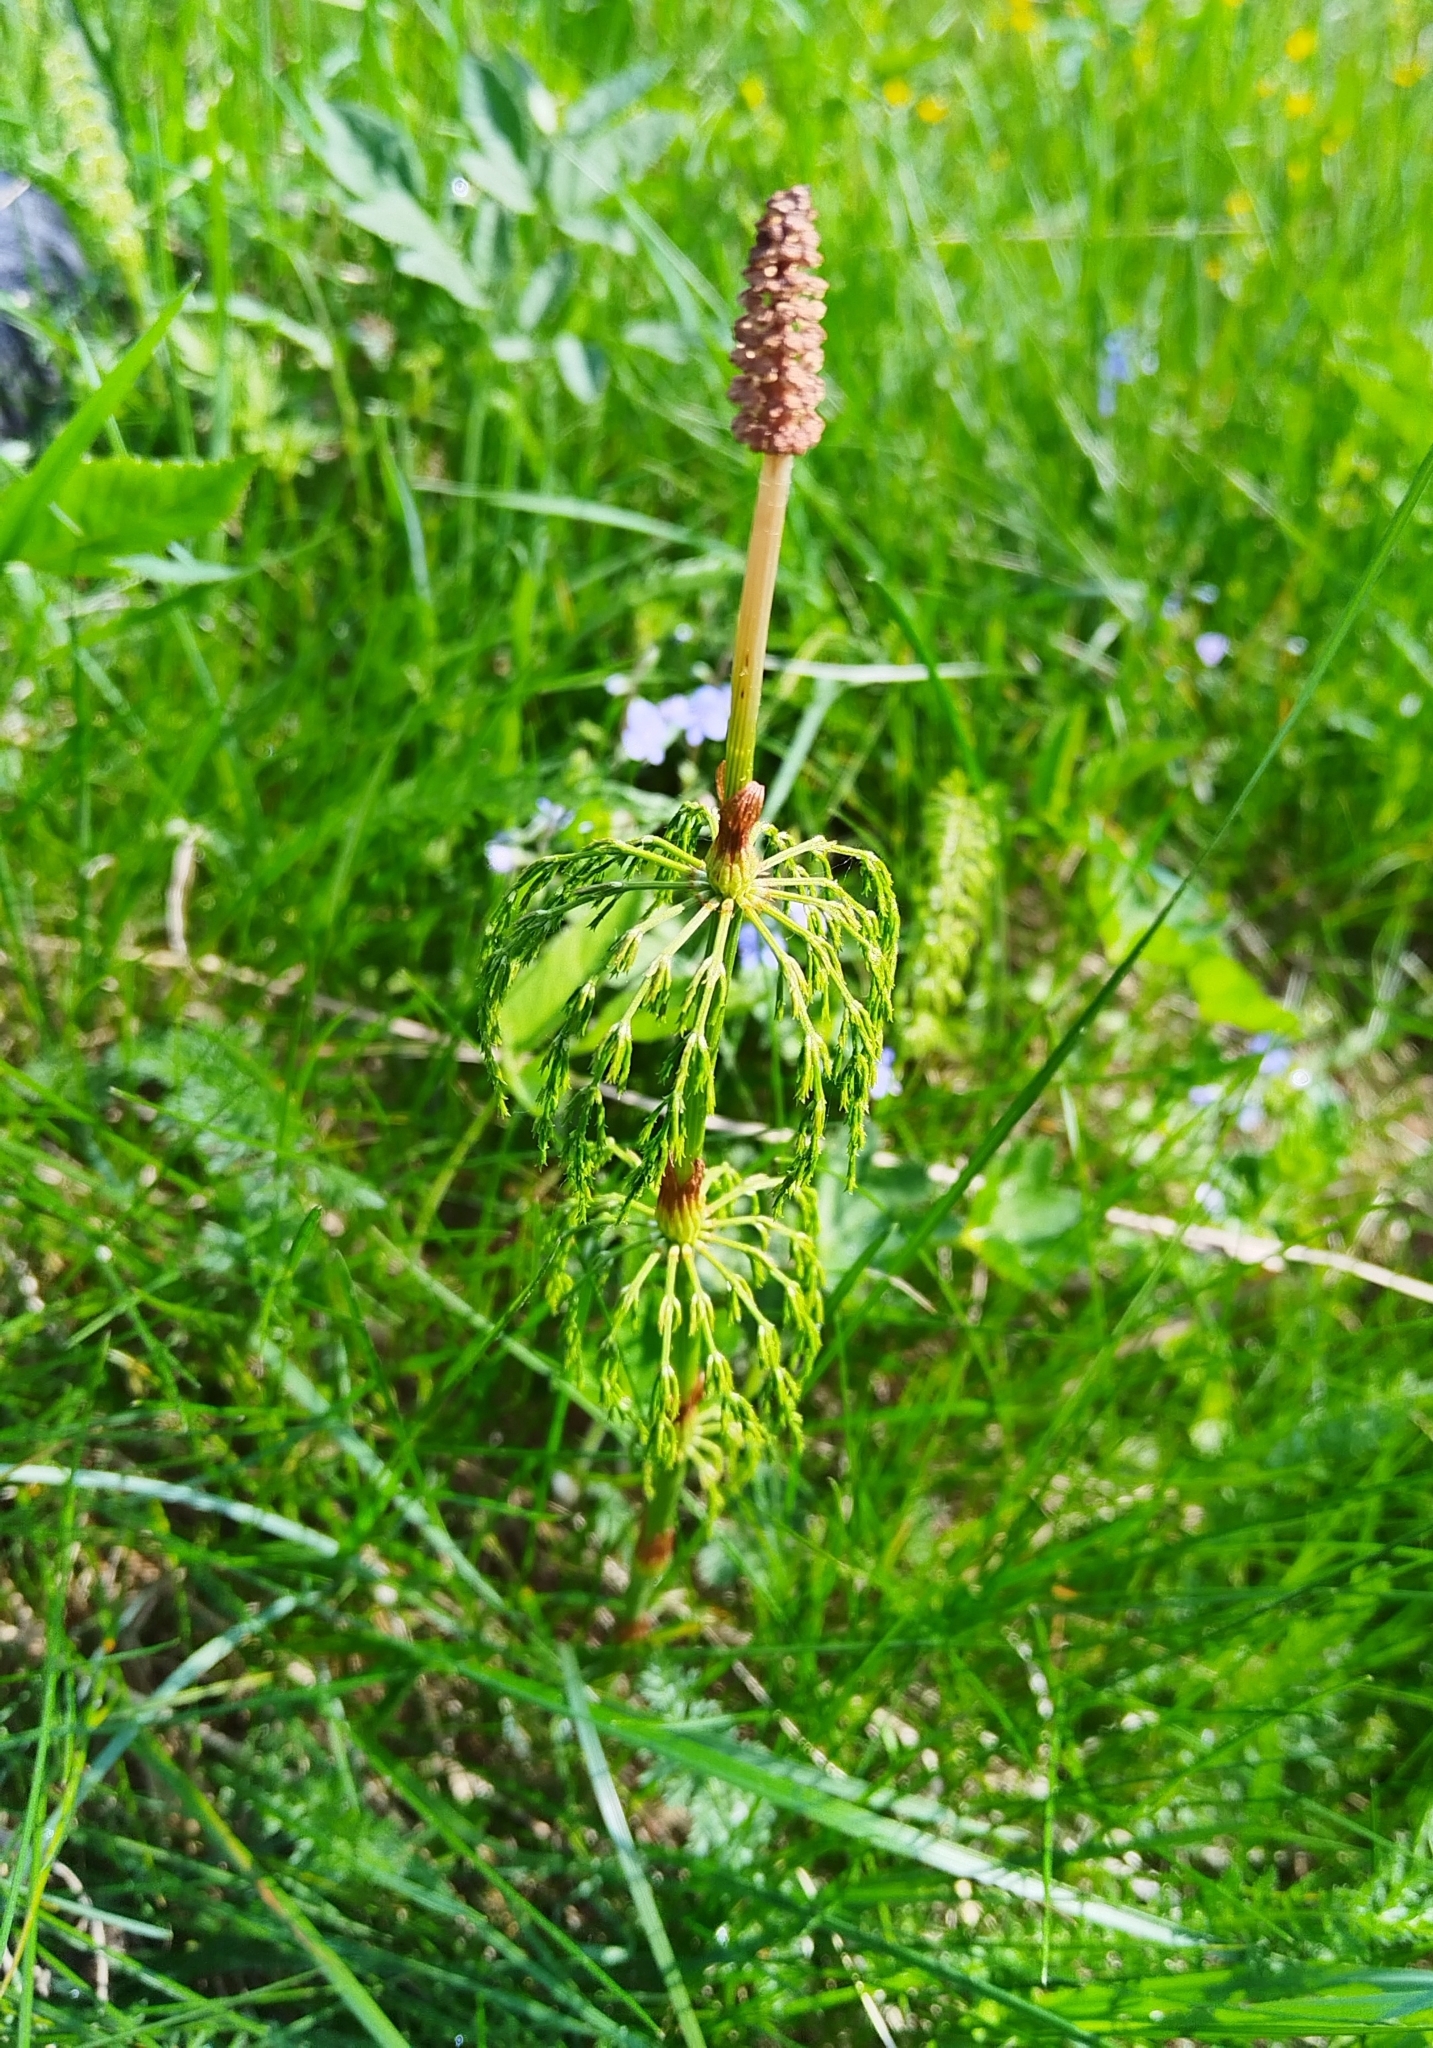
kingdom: Plantae
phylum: Tracheophyta
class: Polypodiopsida
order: Equisetales
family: Equisetaceae
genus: Equisetum
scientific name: Equisetum sylvaticum
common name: Wood horsetail
